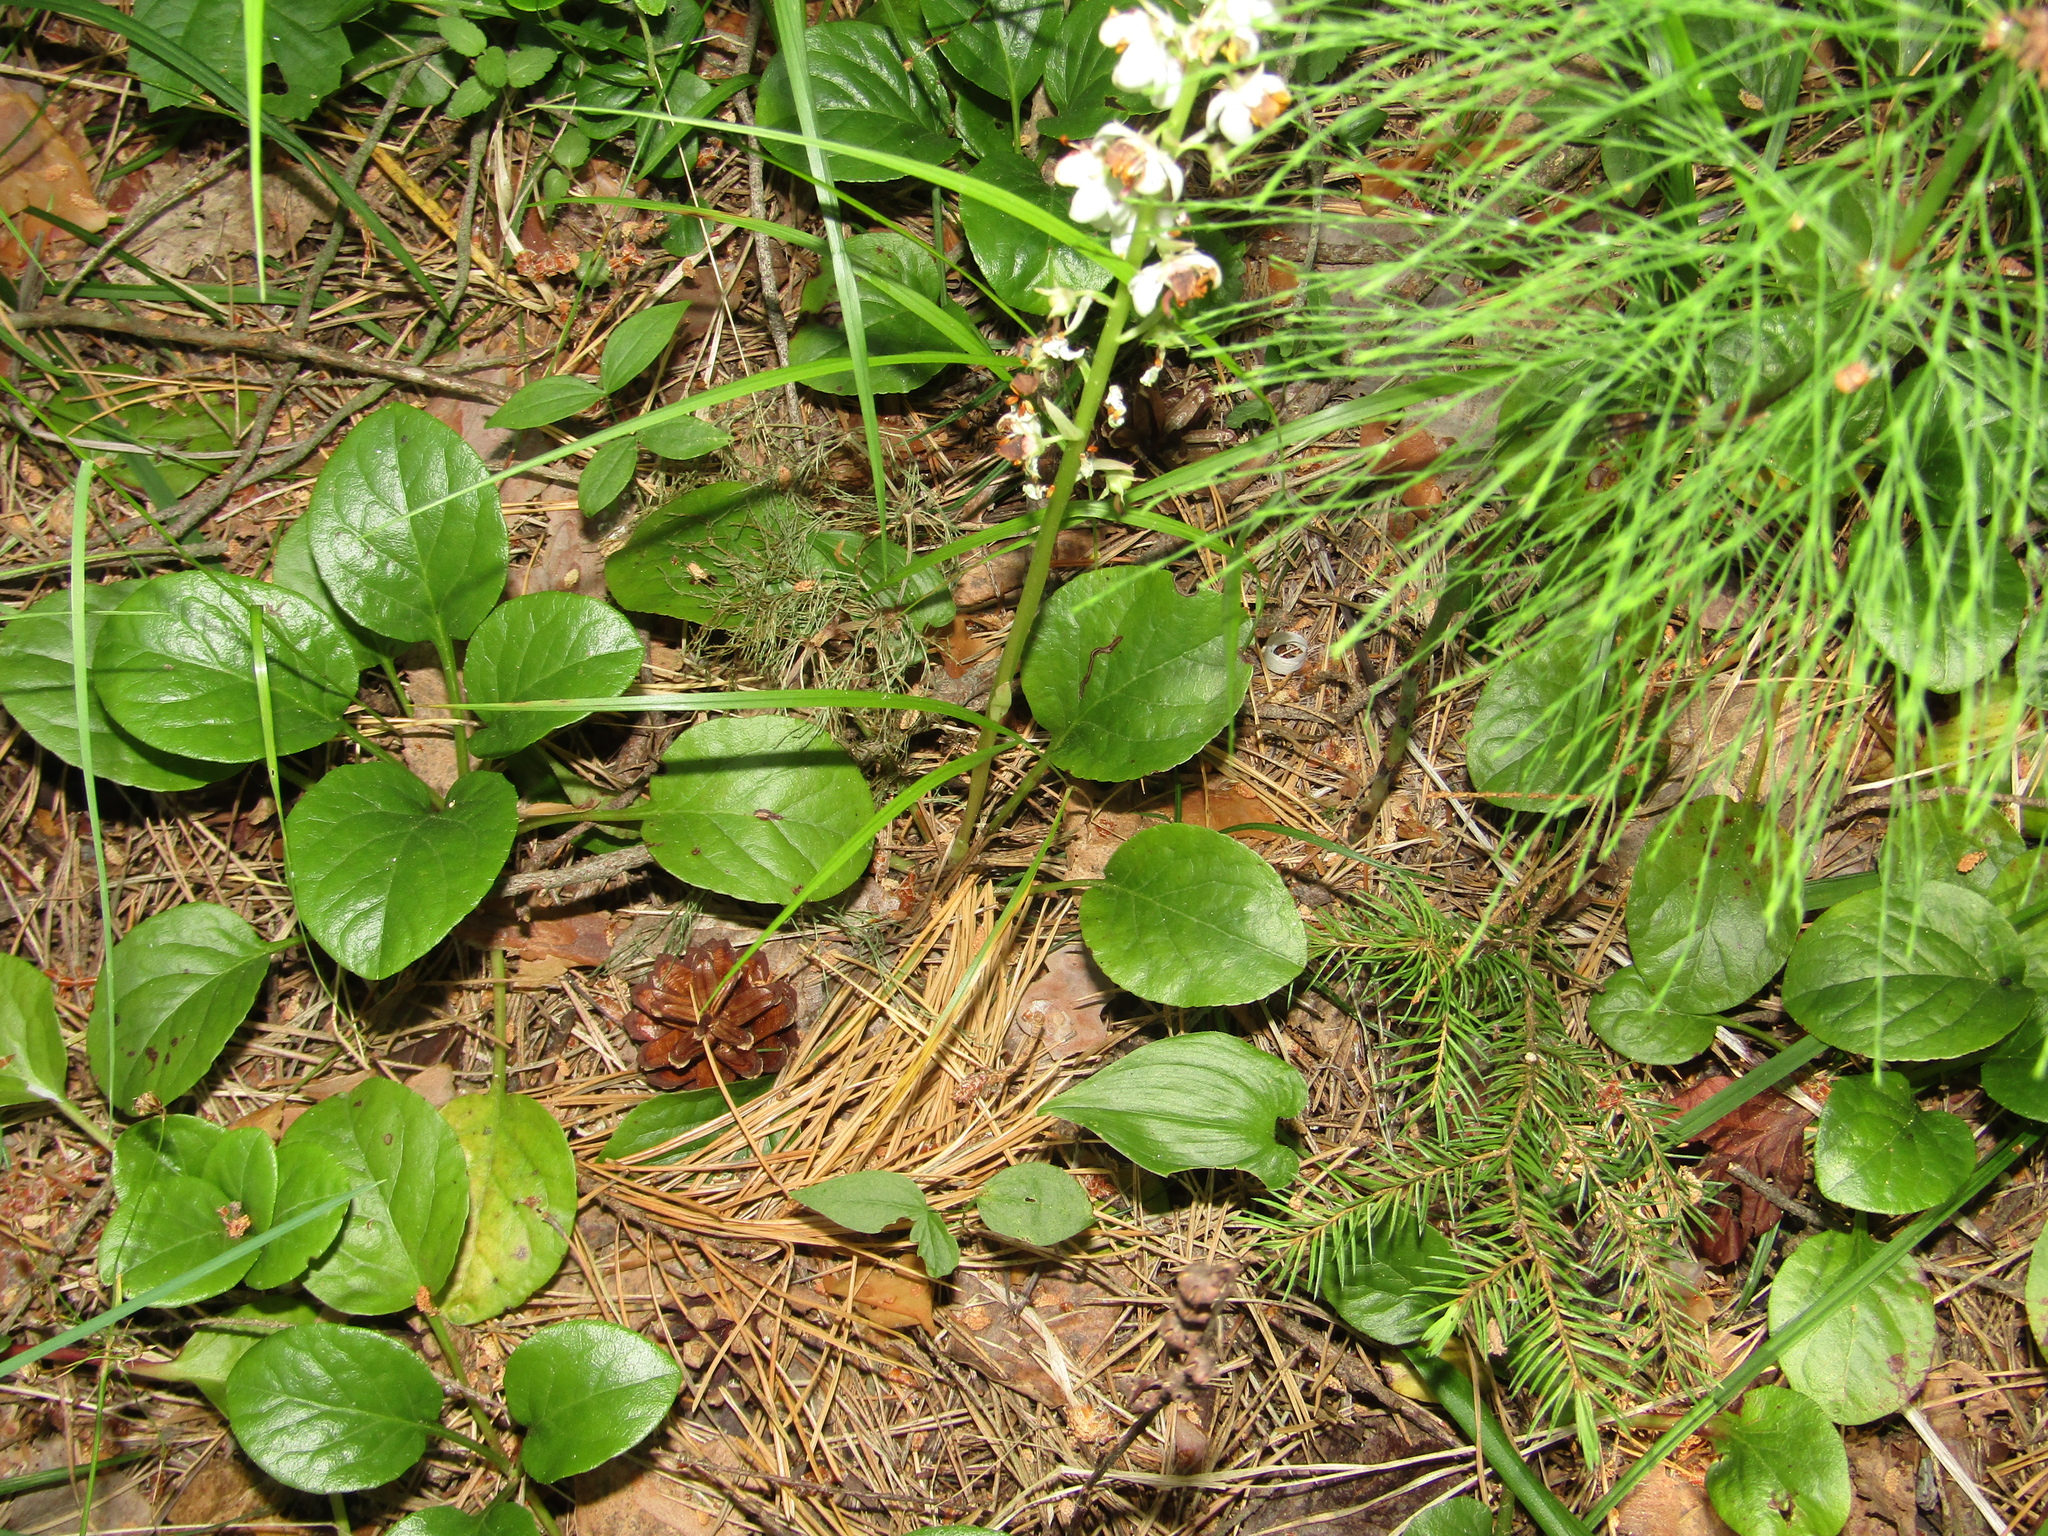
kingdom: Plantae
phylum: Tracheophyta
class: Magnoliopsida
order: Ericales
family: Ericaceae
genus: Pyrola
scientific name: Pyrola rotundifolia
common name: Round-leaved wintergreen
